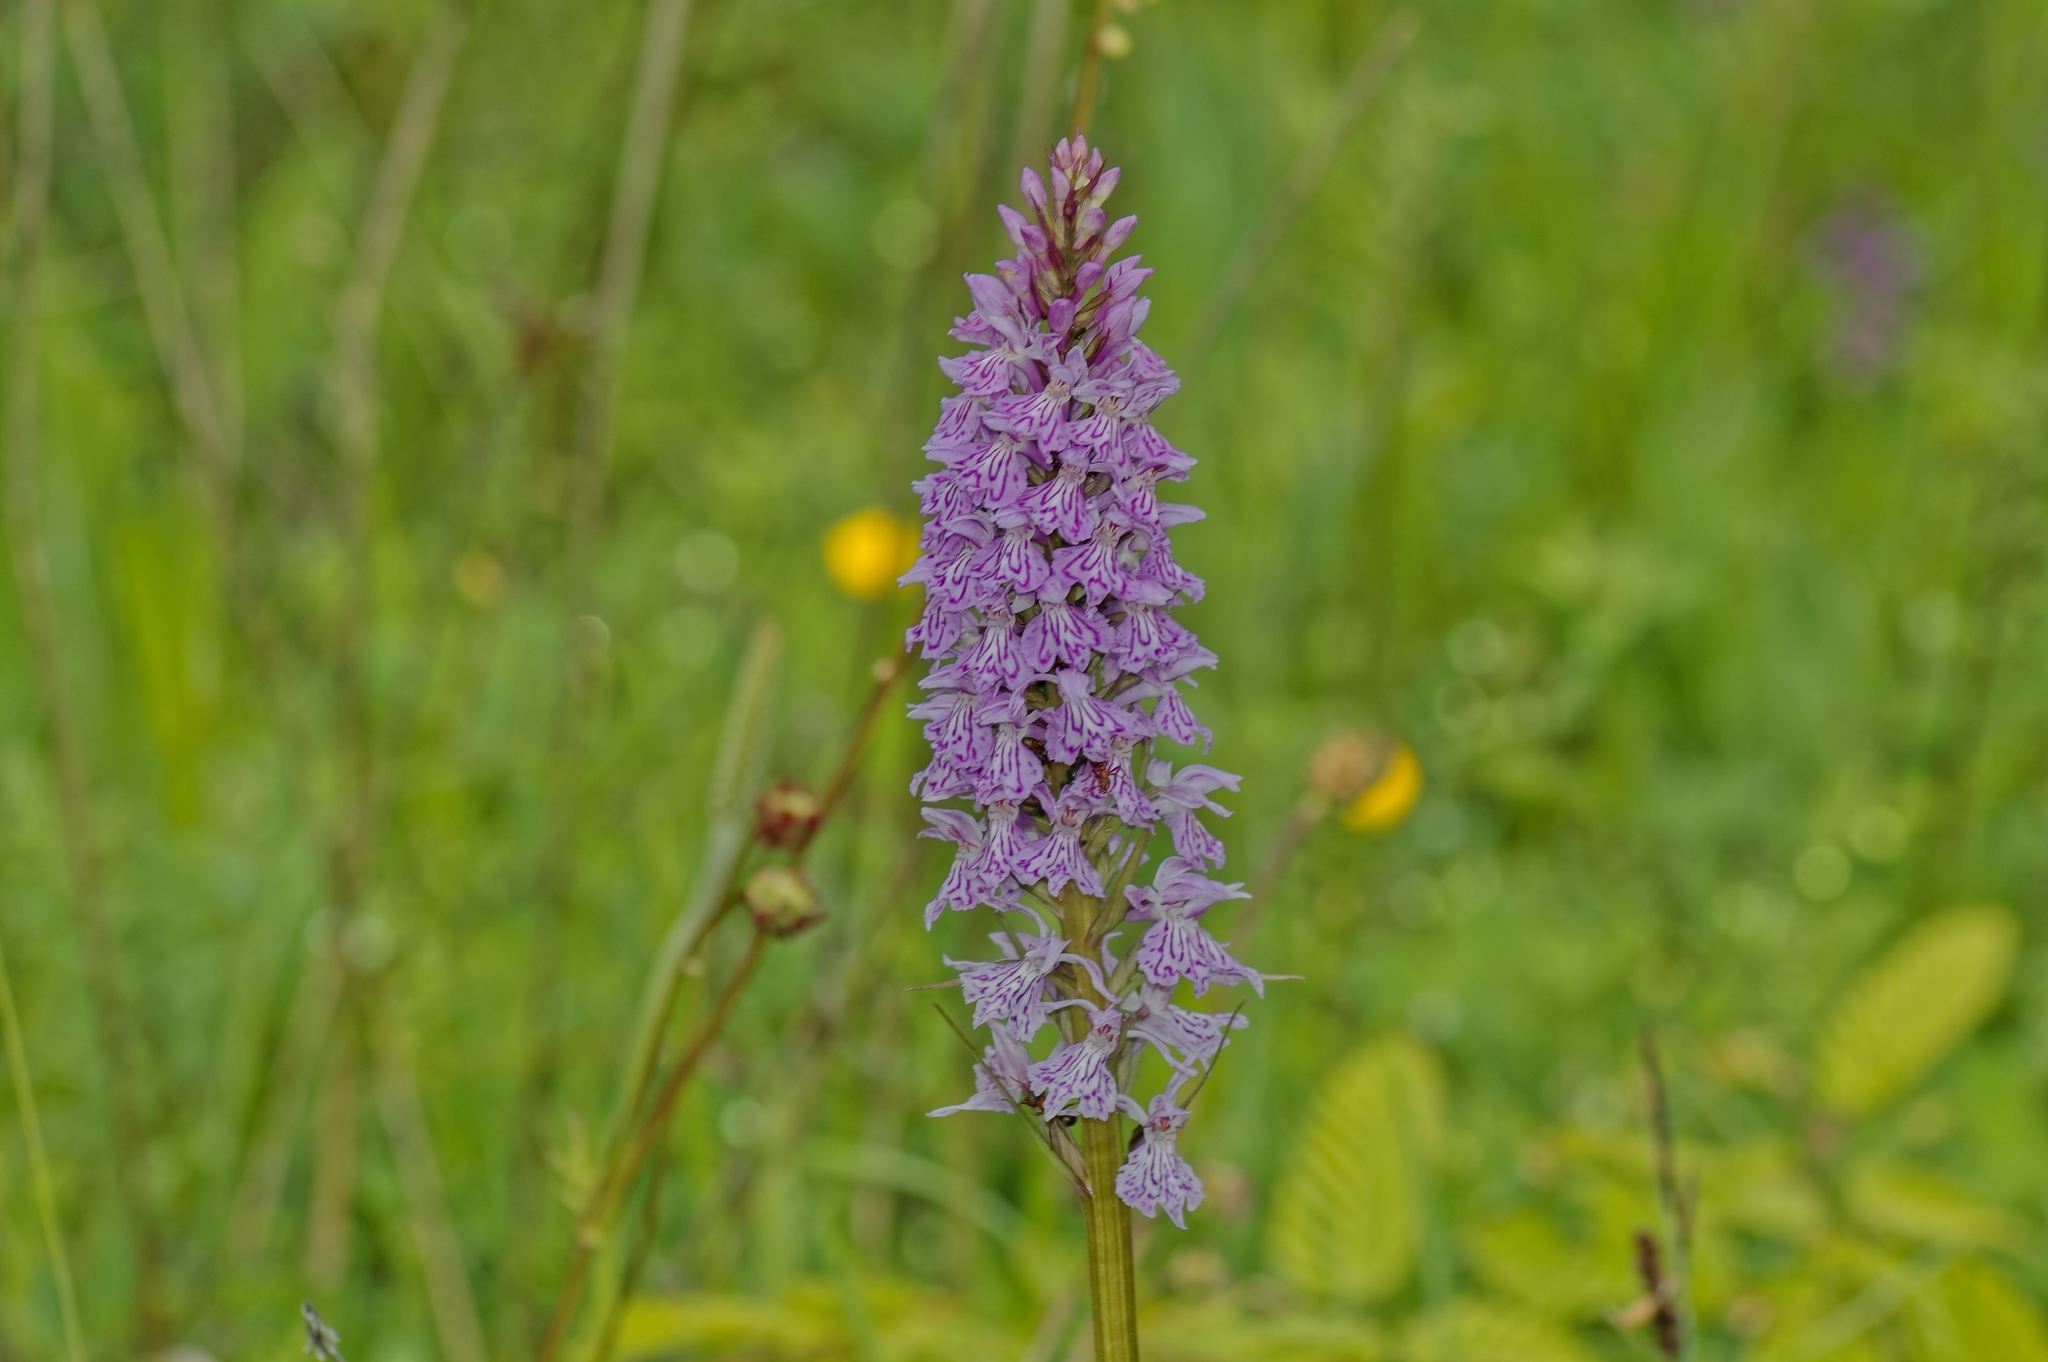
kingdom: Plantae
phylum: Tracheophyta
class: Liliopsida
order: Asparagales
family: Orchidaceae
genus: Dactylorhiza
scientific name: Dactylorhiza maculata
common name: Heath spotted-orchid
